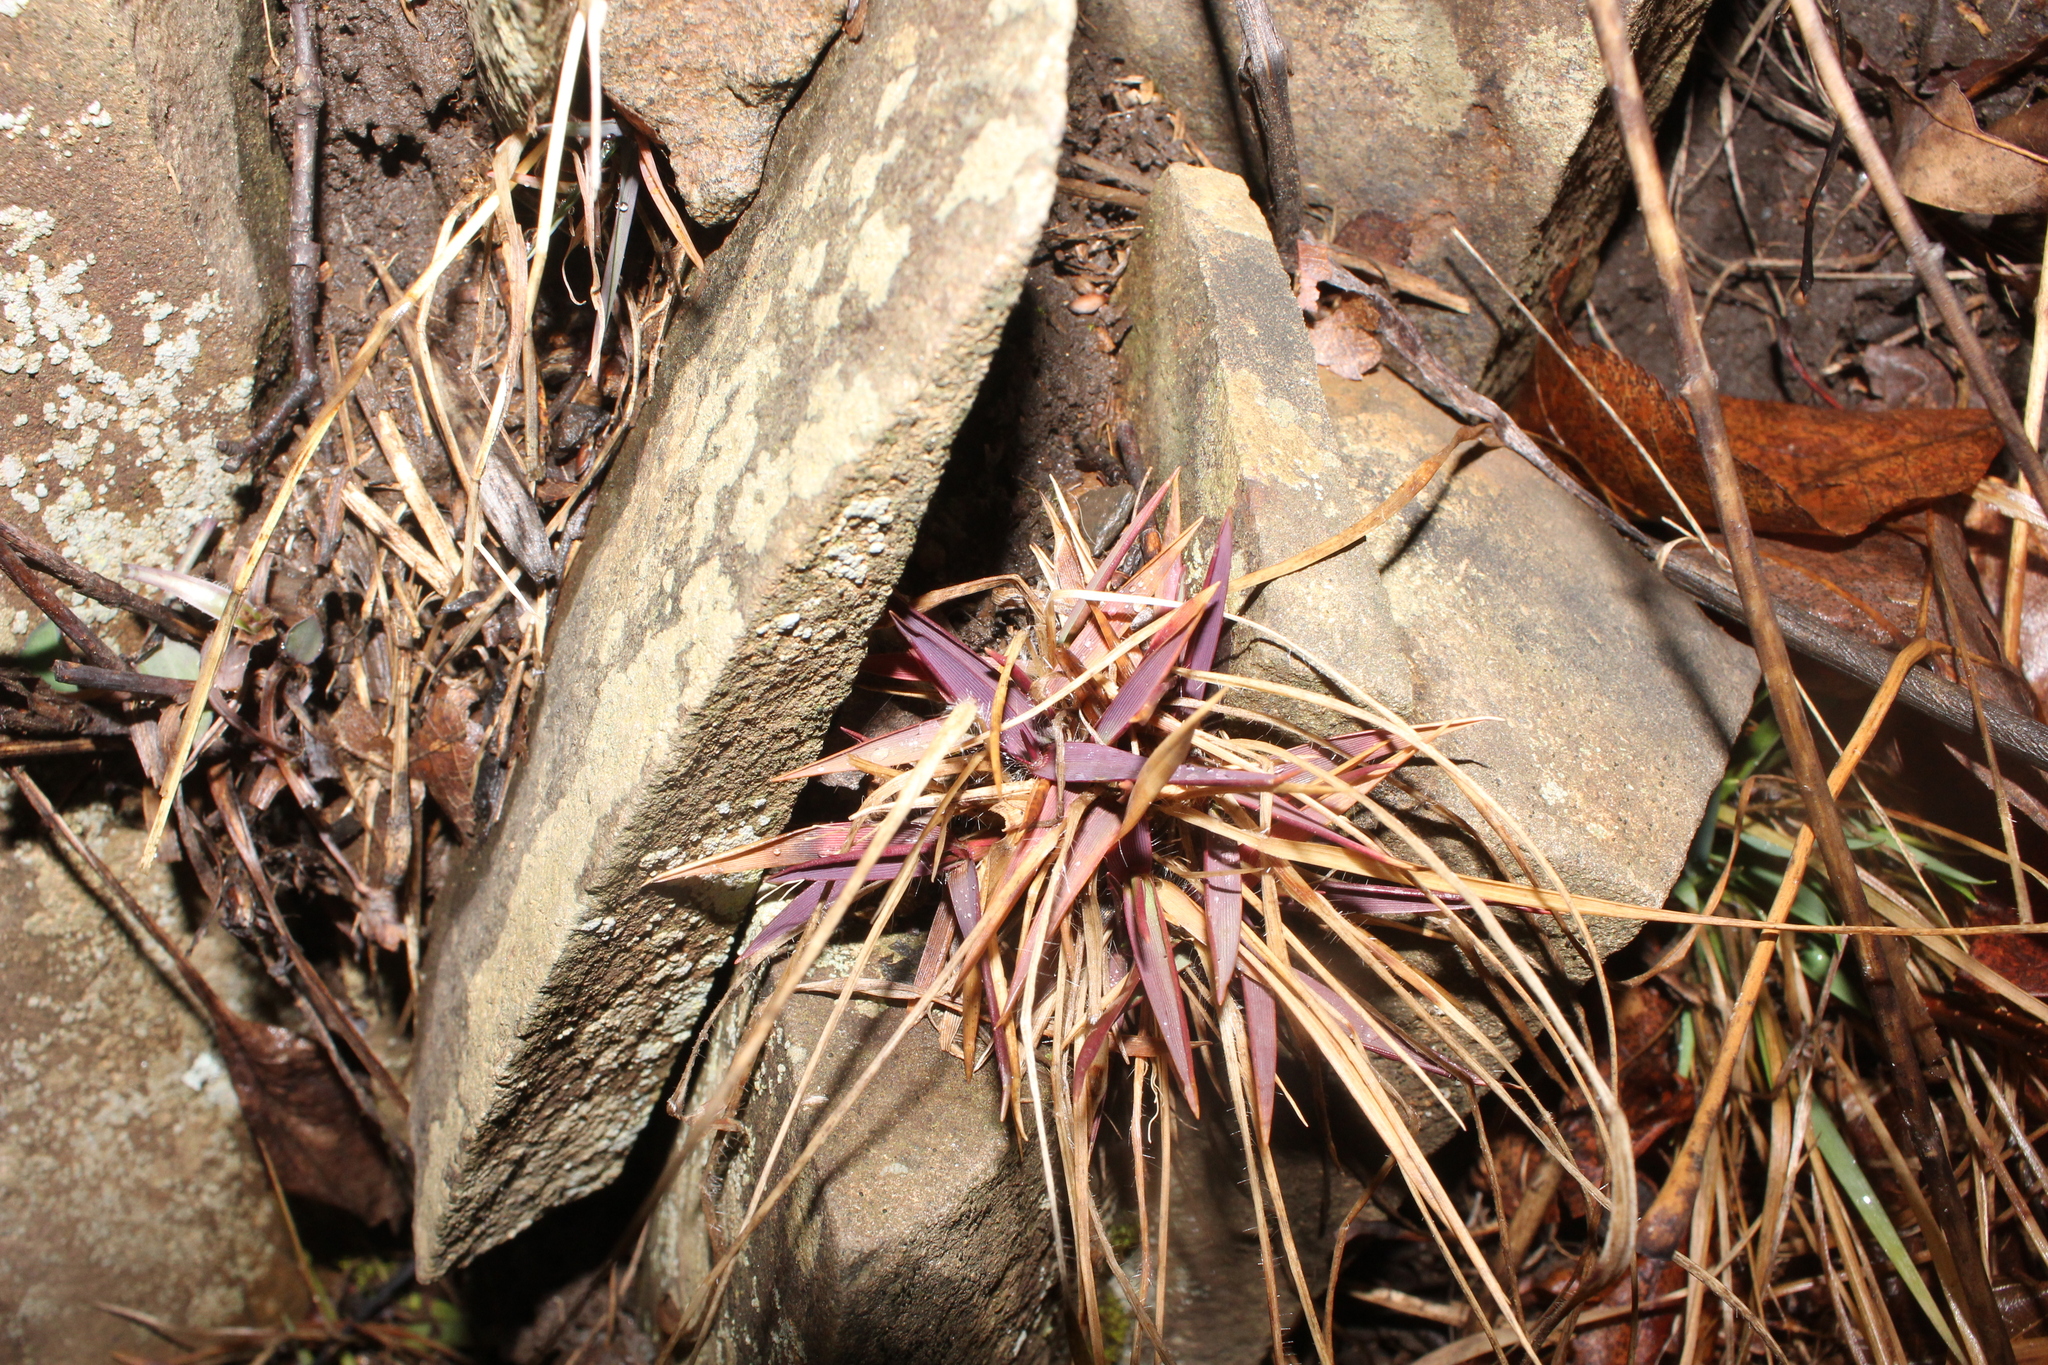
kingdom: Plantae
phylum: Tracheophyta
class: Liliopsida
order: Poales
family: Poaceae
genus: Dichanthelium
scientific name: Dichanthelium
